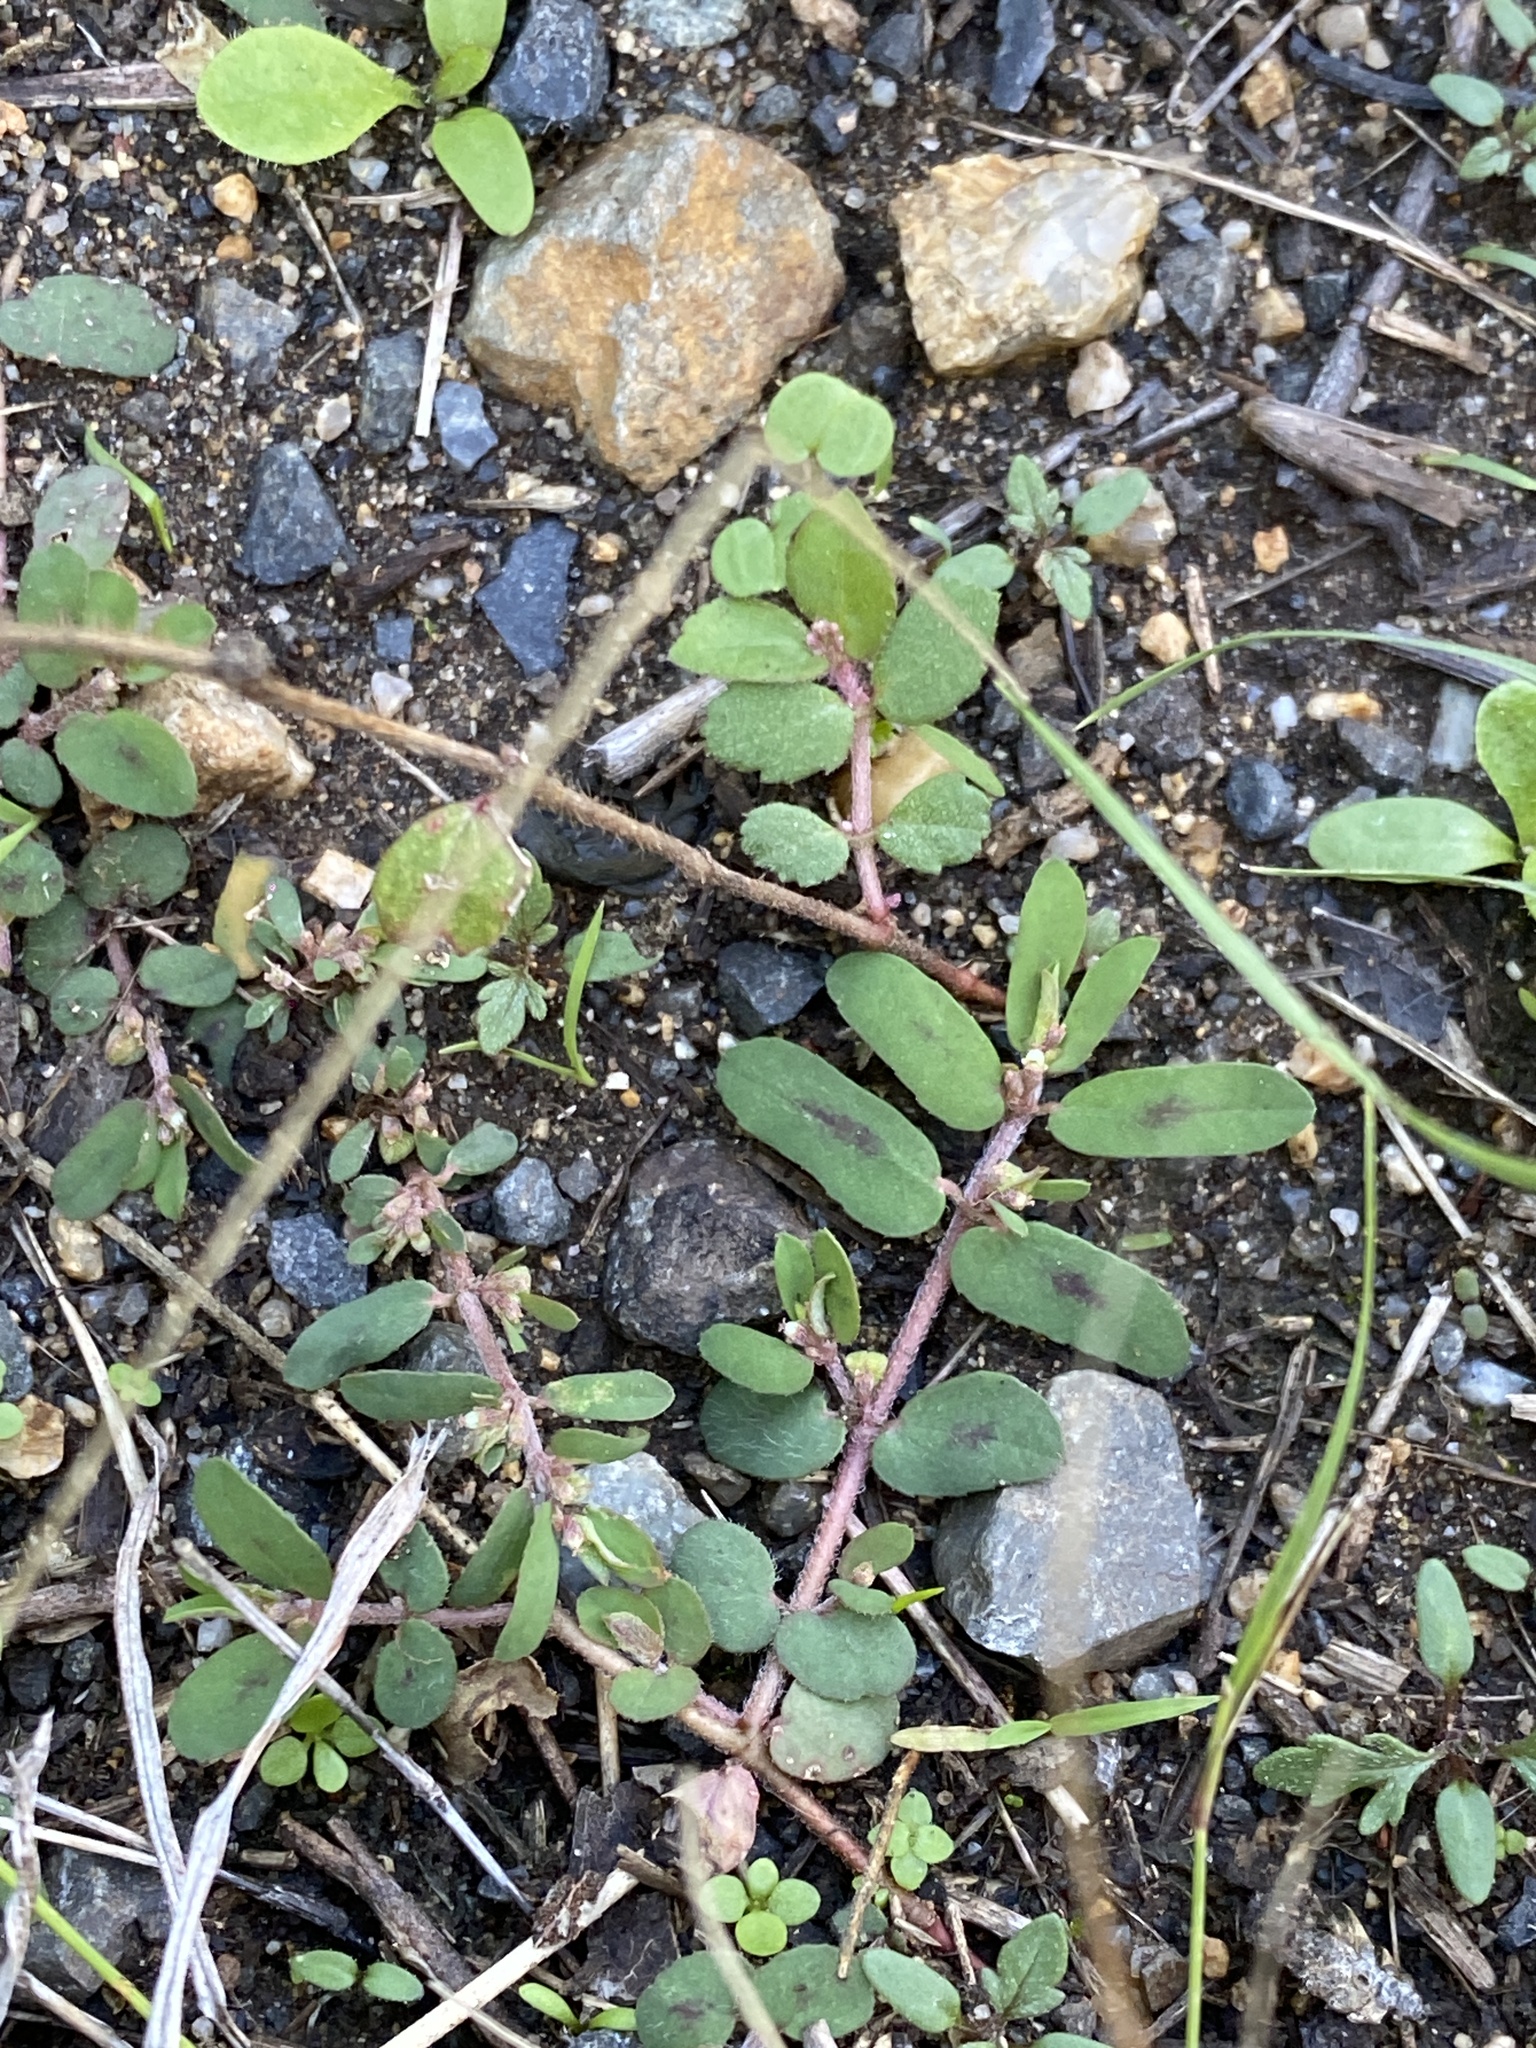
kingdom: Plantae
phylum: Tracheophyta
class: Magnoliopsida
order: Malpighiales
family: Euphorbiaceae
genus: Euphorbia
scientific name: Euphorbia maculata
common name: Spotted spurge
